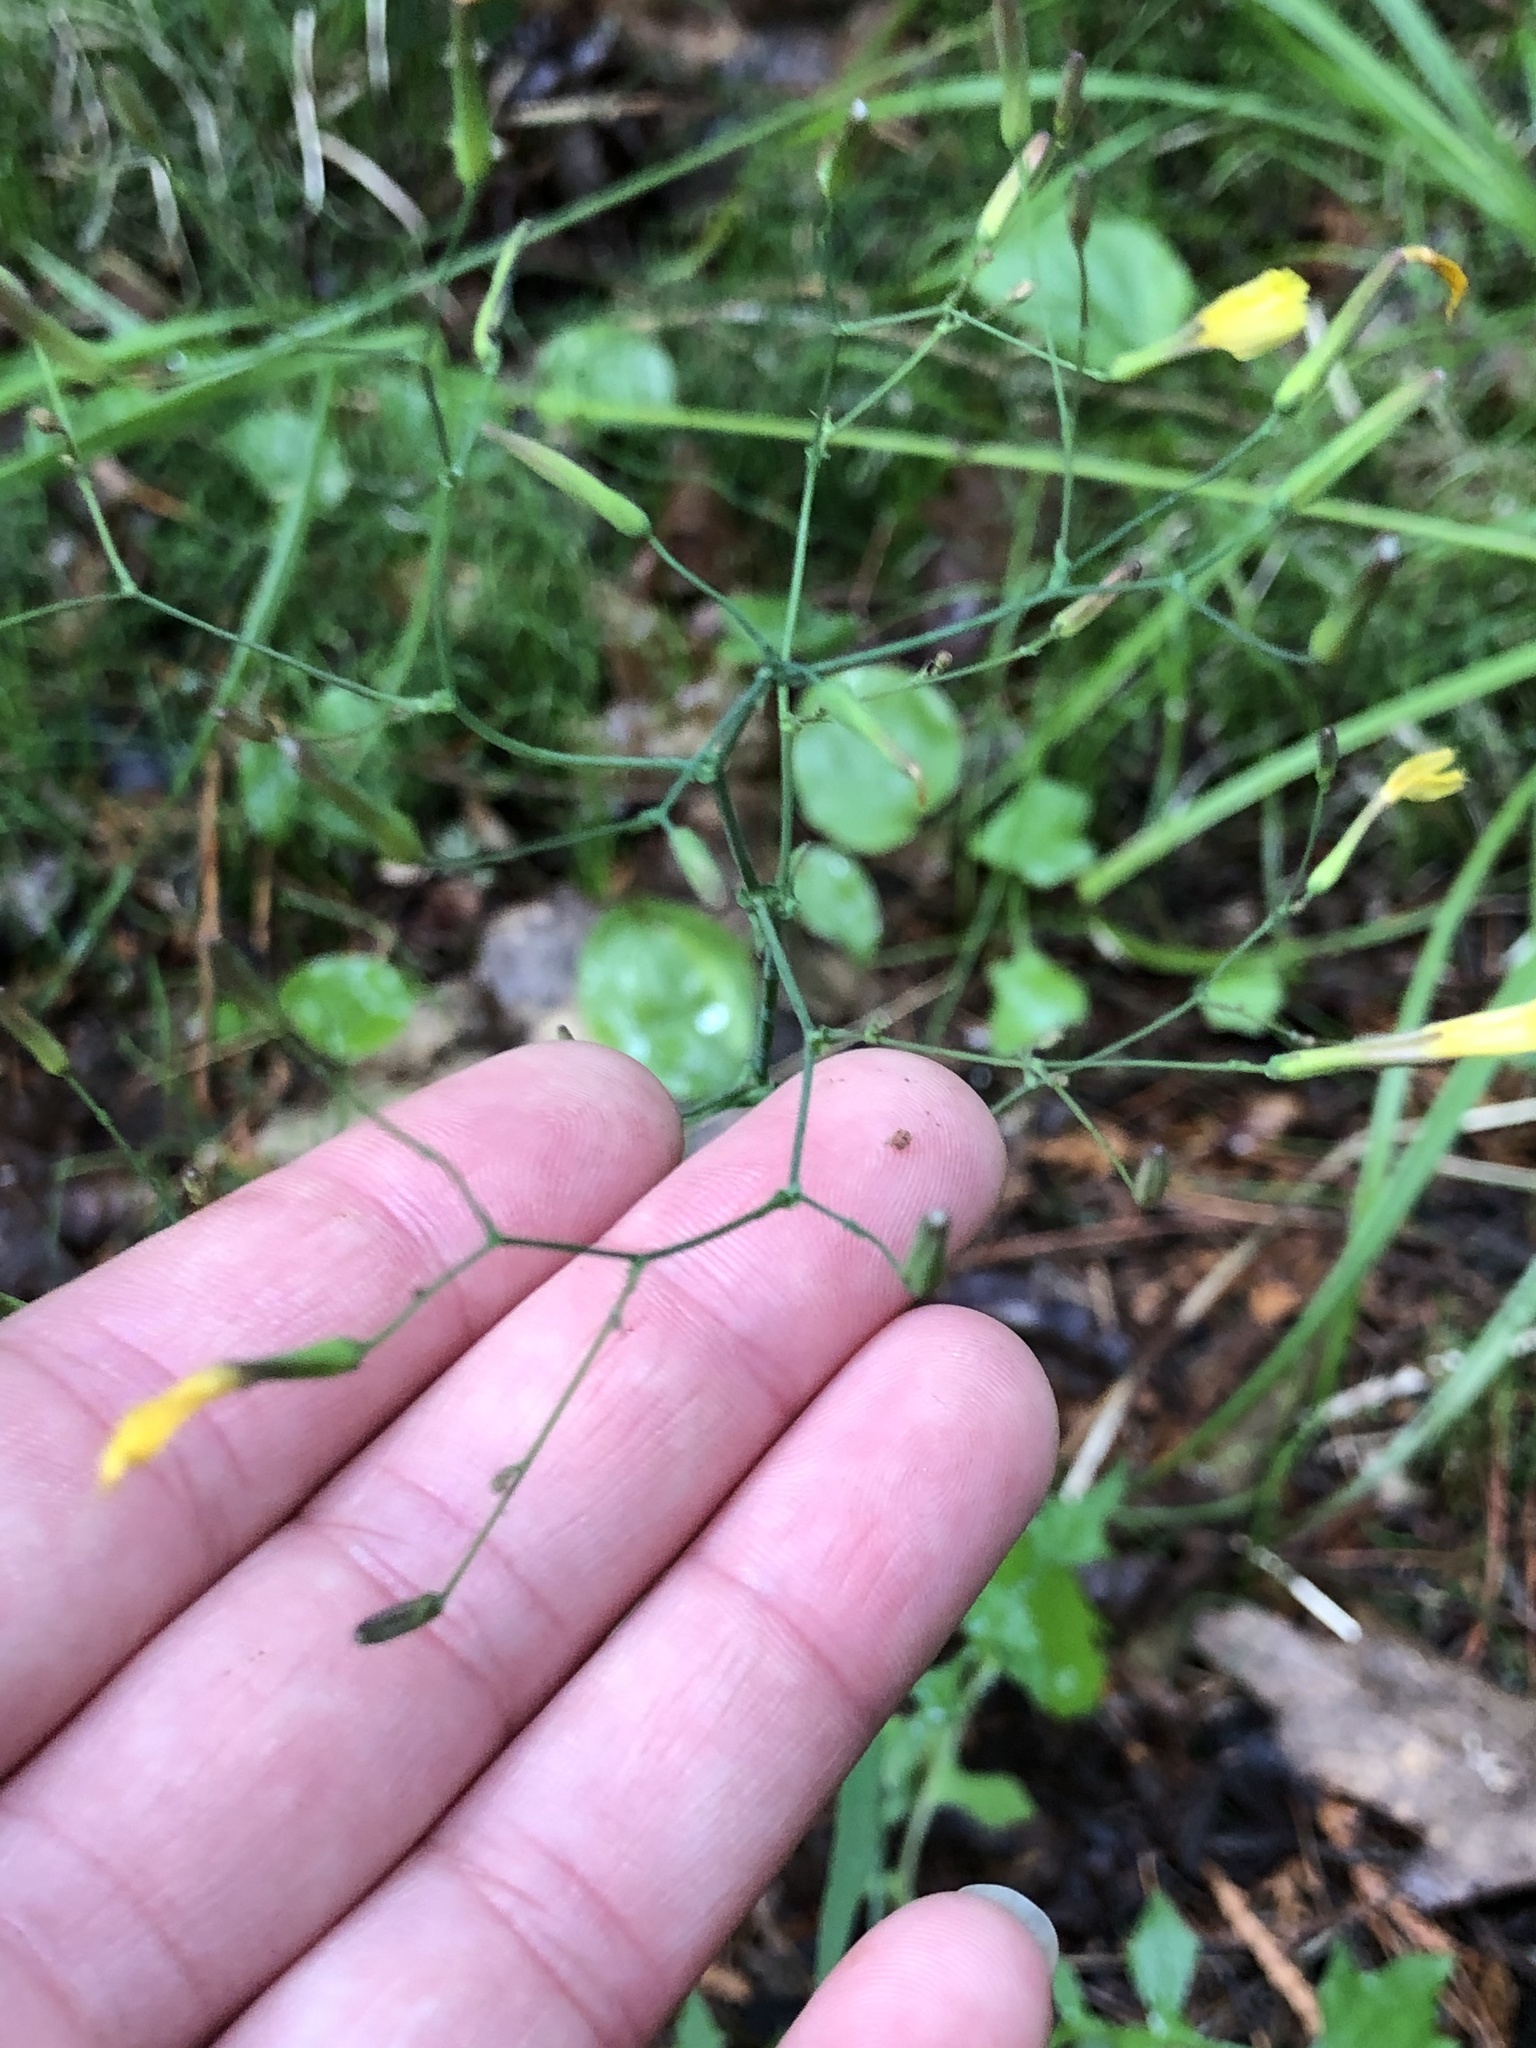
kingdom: Plantae
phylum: Tracheophyta
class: Magnoliopsida
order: Asterales
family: Asteraceae
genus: Mycelis
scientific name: Mycelis muralis
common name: Wall lettuce
